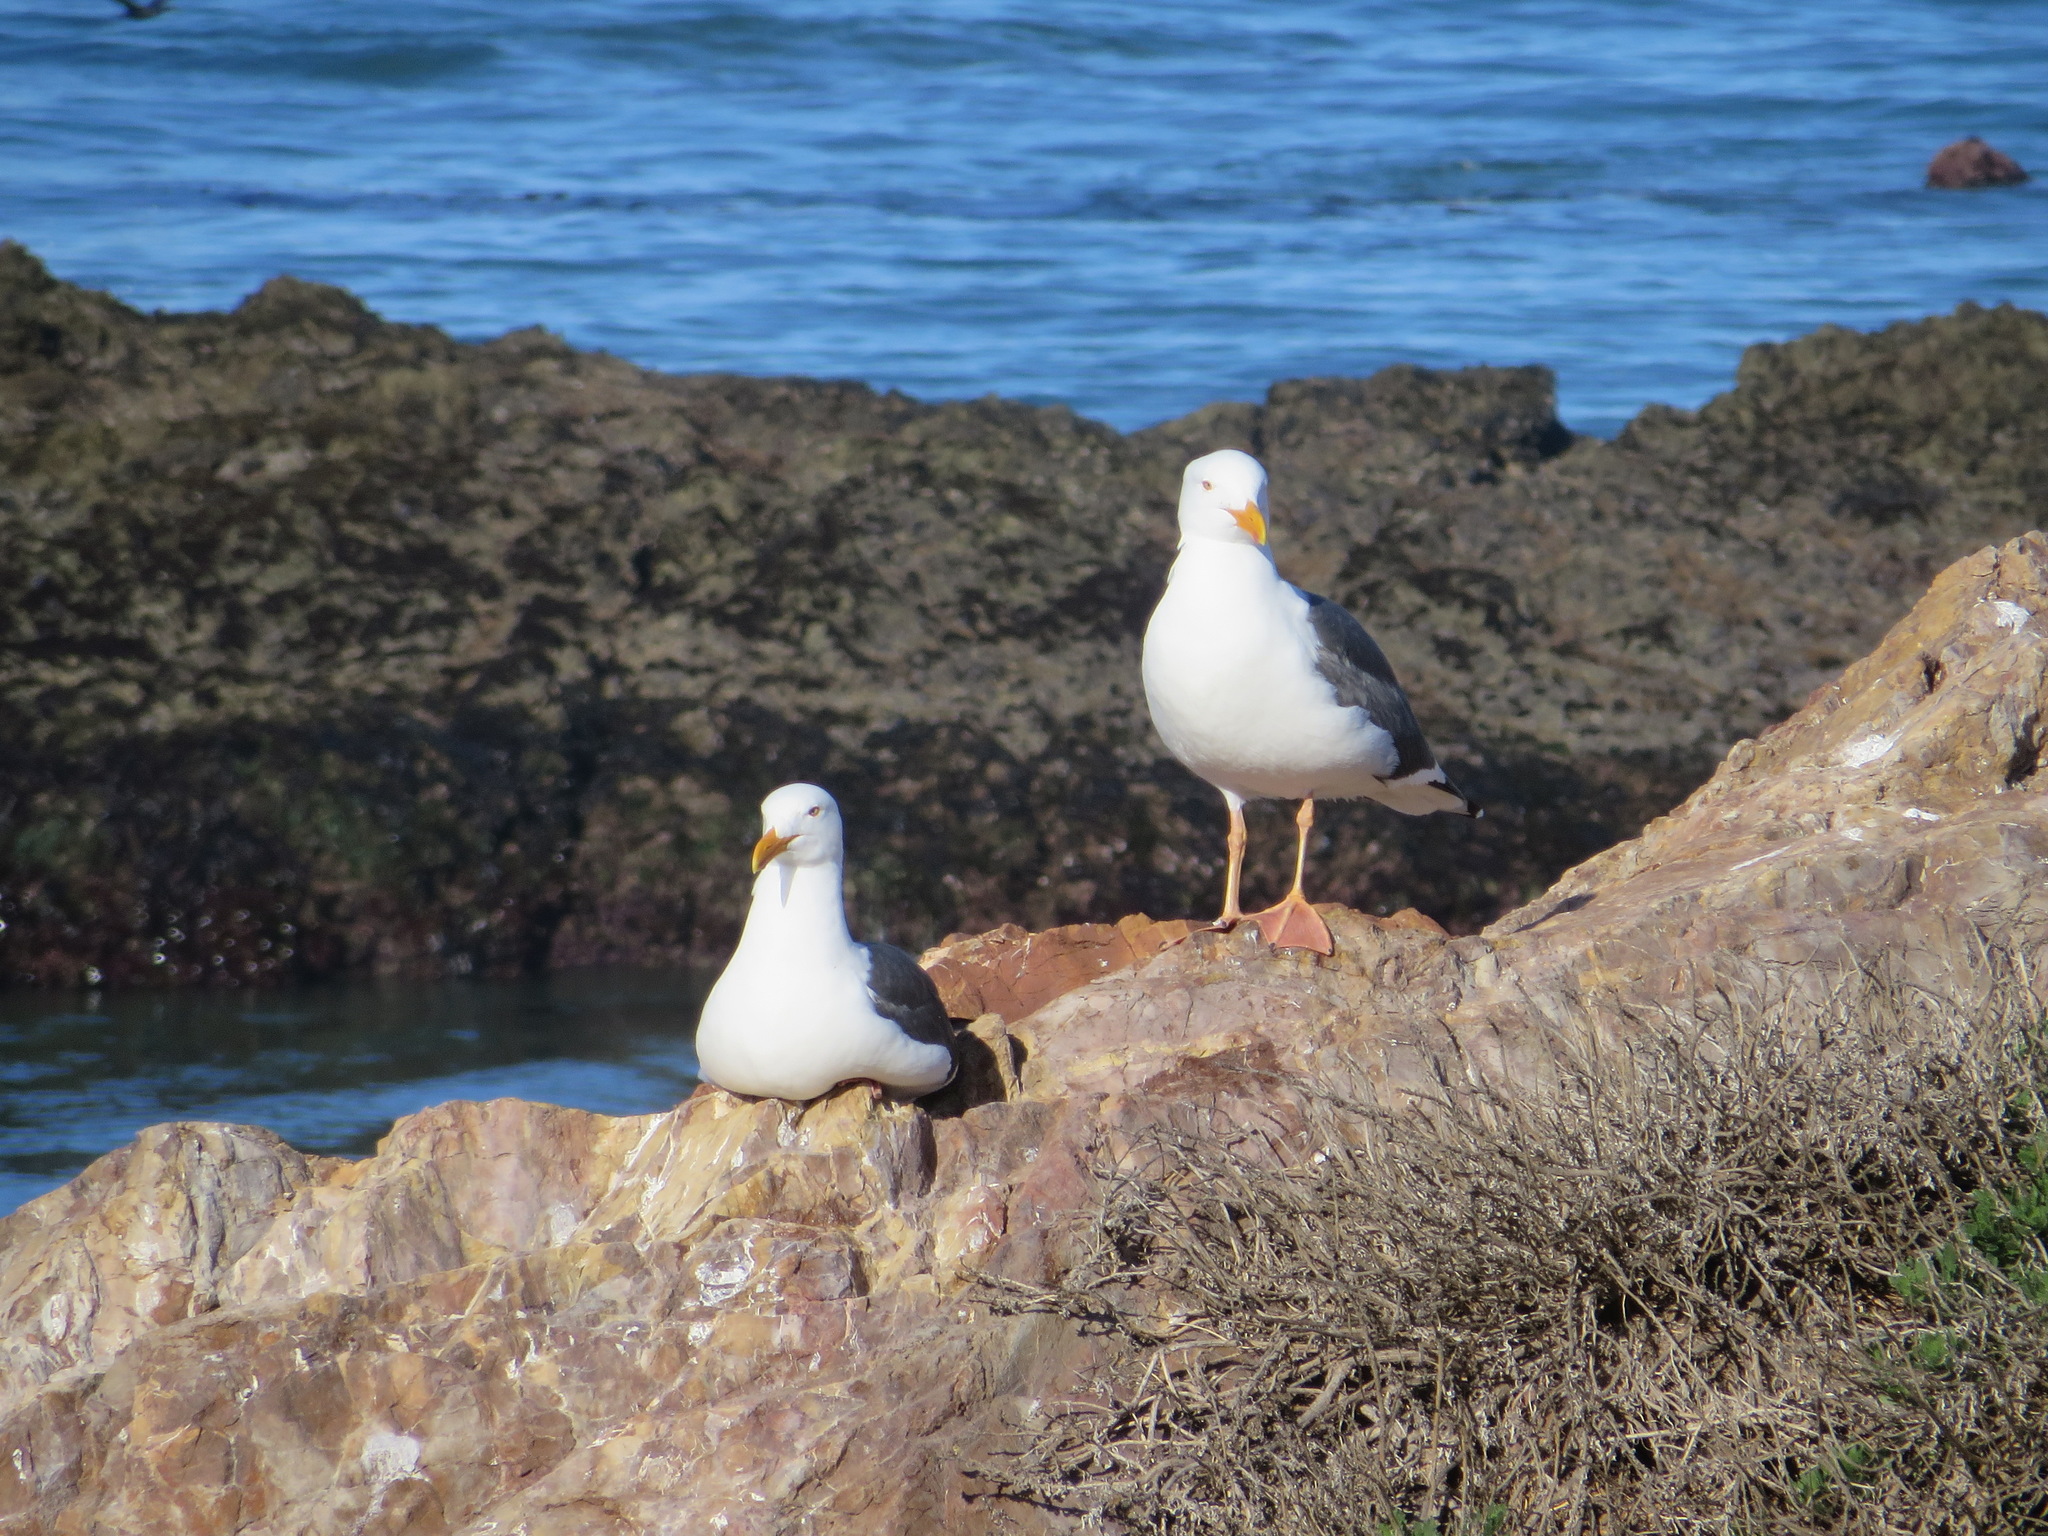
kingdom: Animalia
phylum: Chordata
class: Aves
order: Charadriiformes
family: Laridae
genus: Larus
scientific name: Larus occidentalis
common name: Western gull
